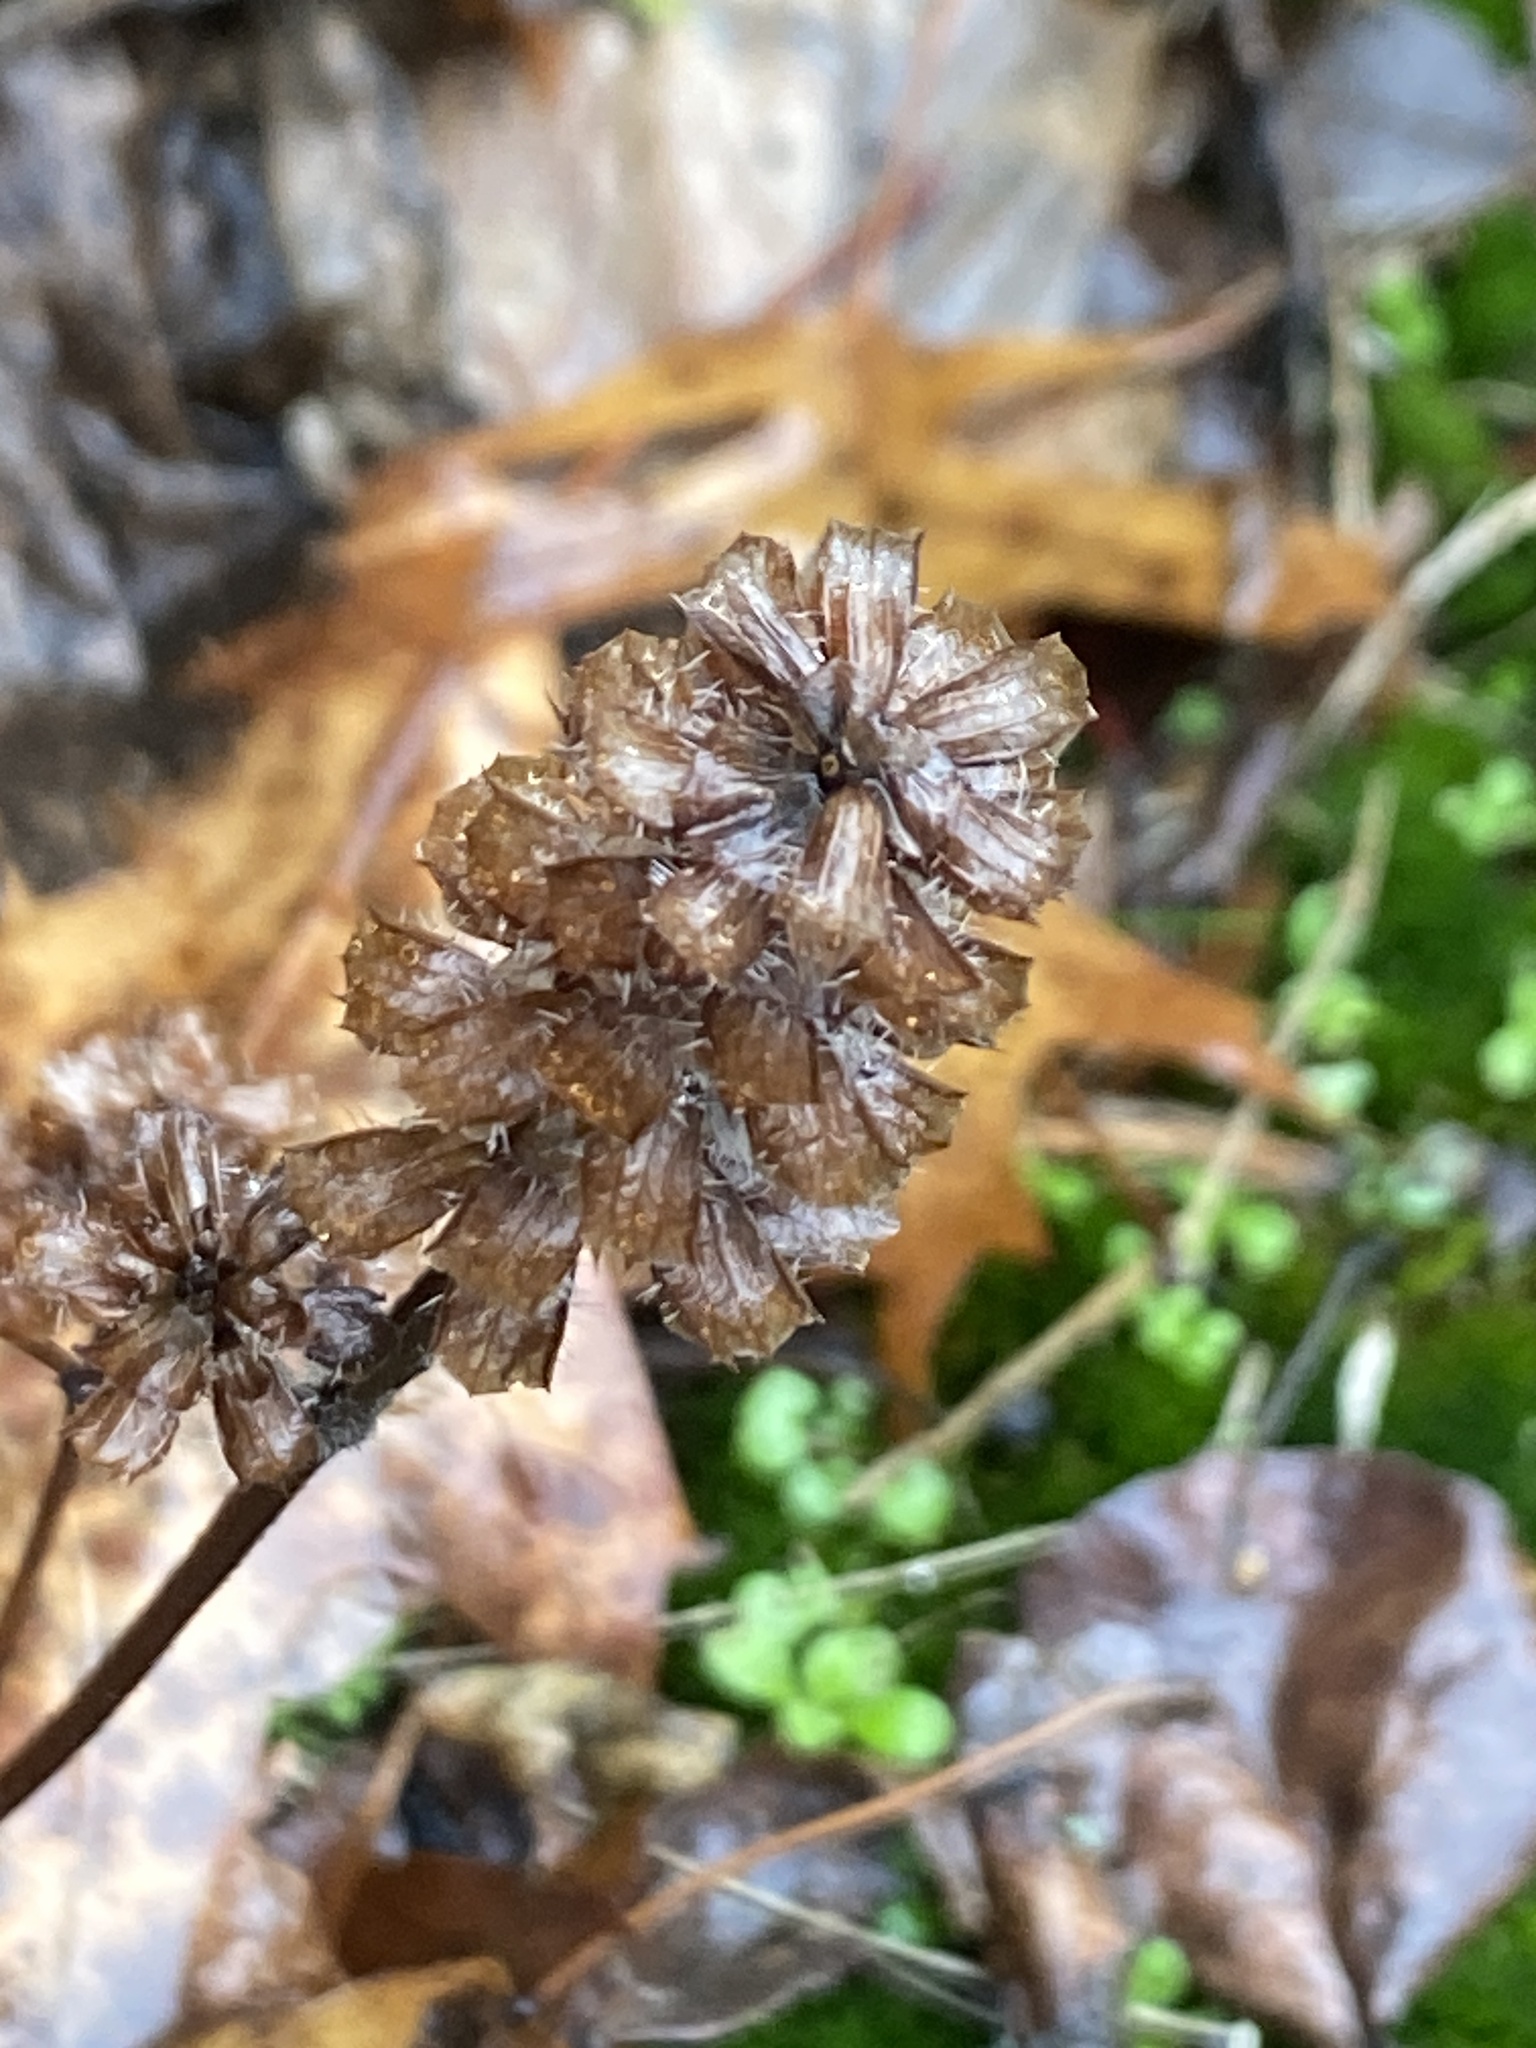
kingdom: Plantae
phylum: Tracheophyta
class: Magnoliopsida
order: Lamiales
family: Lamiaceae
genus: Prunella
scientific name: Prunella vulgaris
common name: Heal-all
